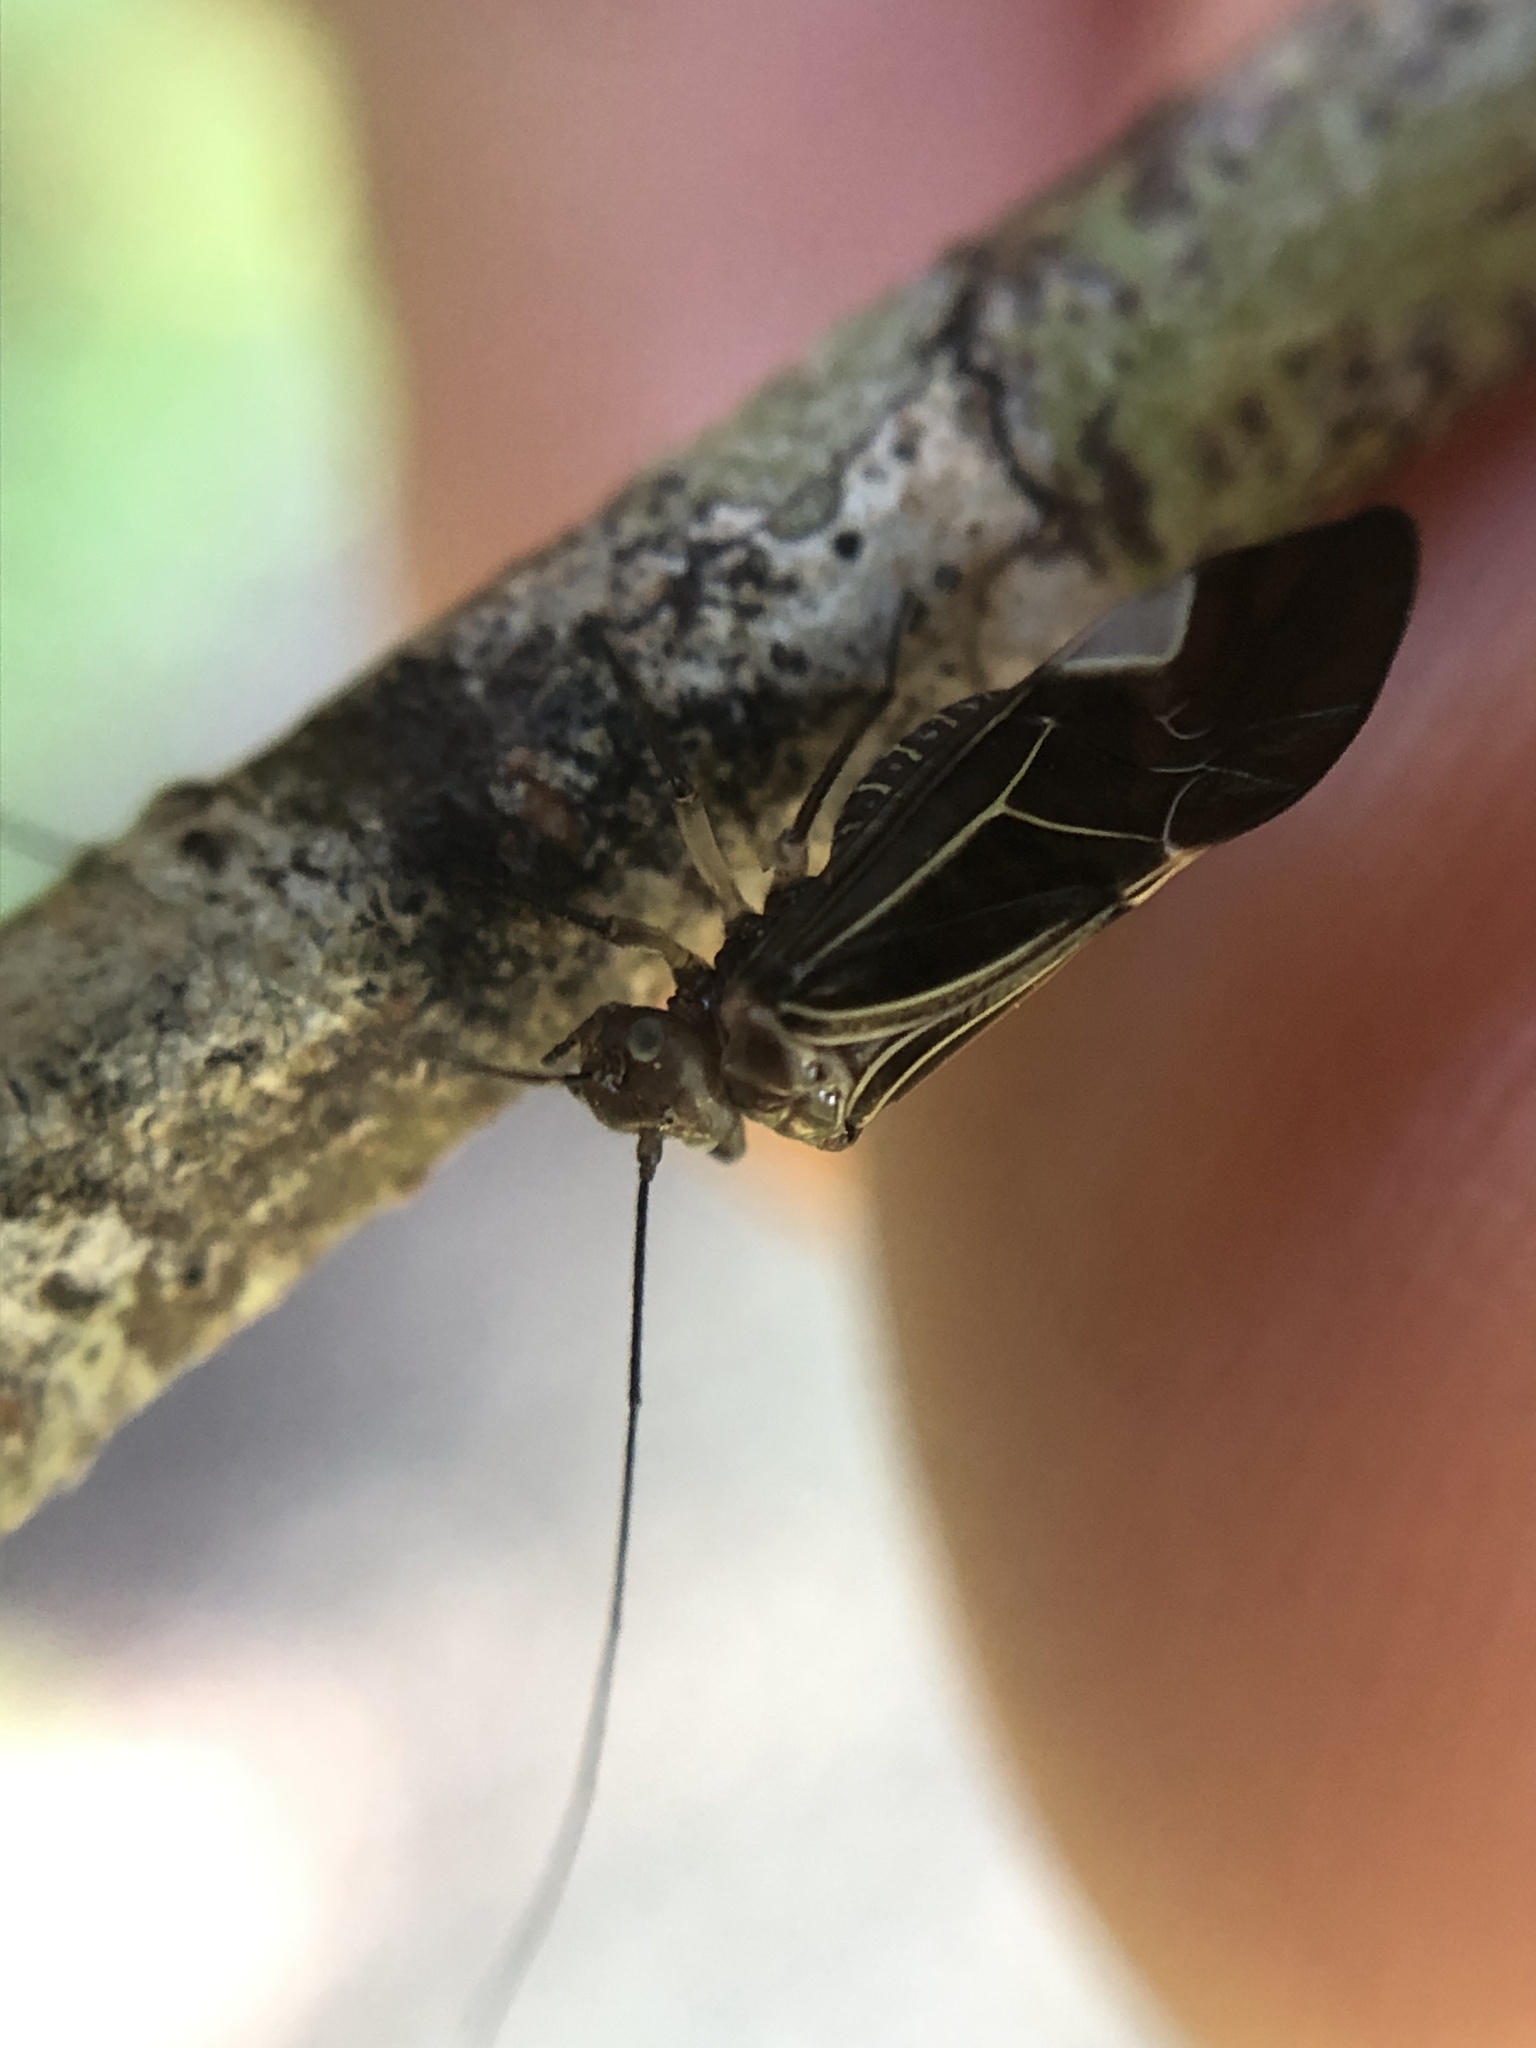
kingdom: Animalia
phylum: Arthropoda
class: Insecta
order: Psocodea
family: Psocidae
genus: Cerastipsocus
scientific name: Cerastipsocus venosus
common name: Tree cattle
